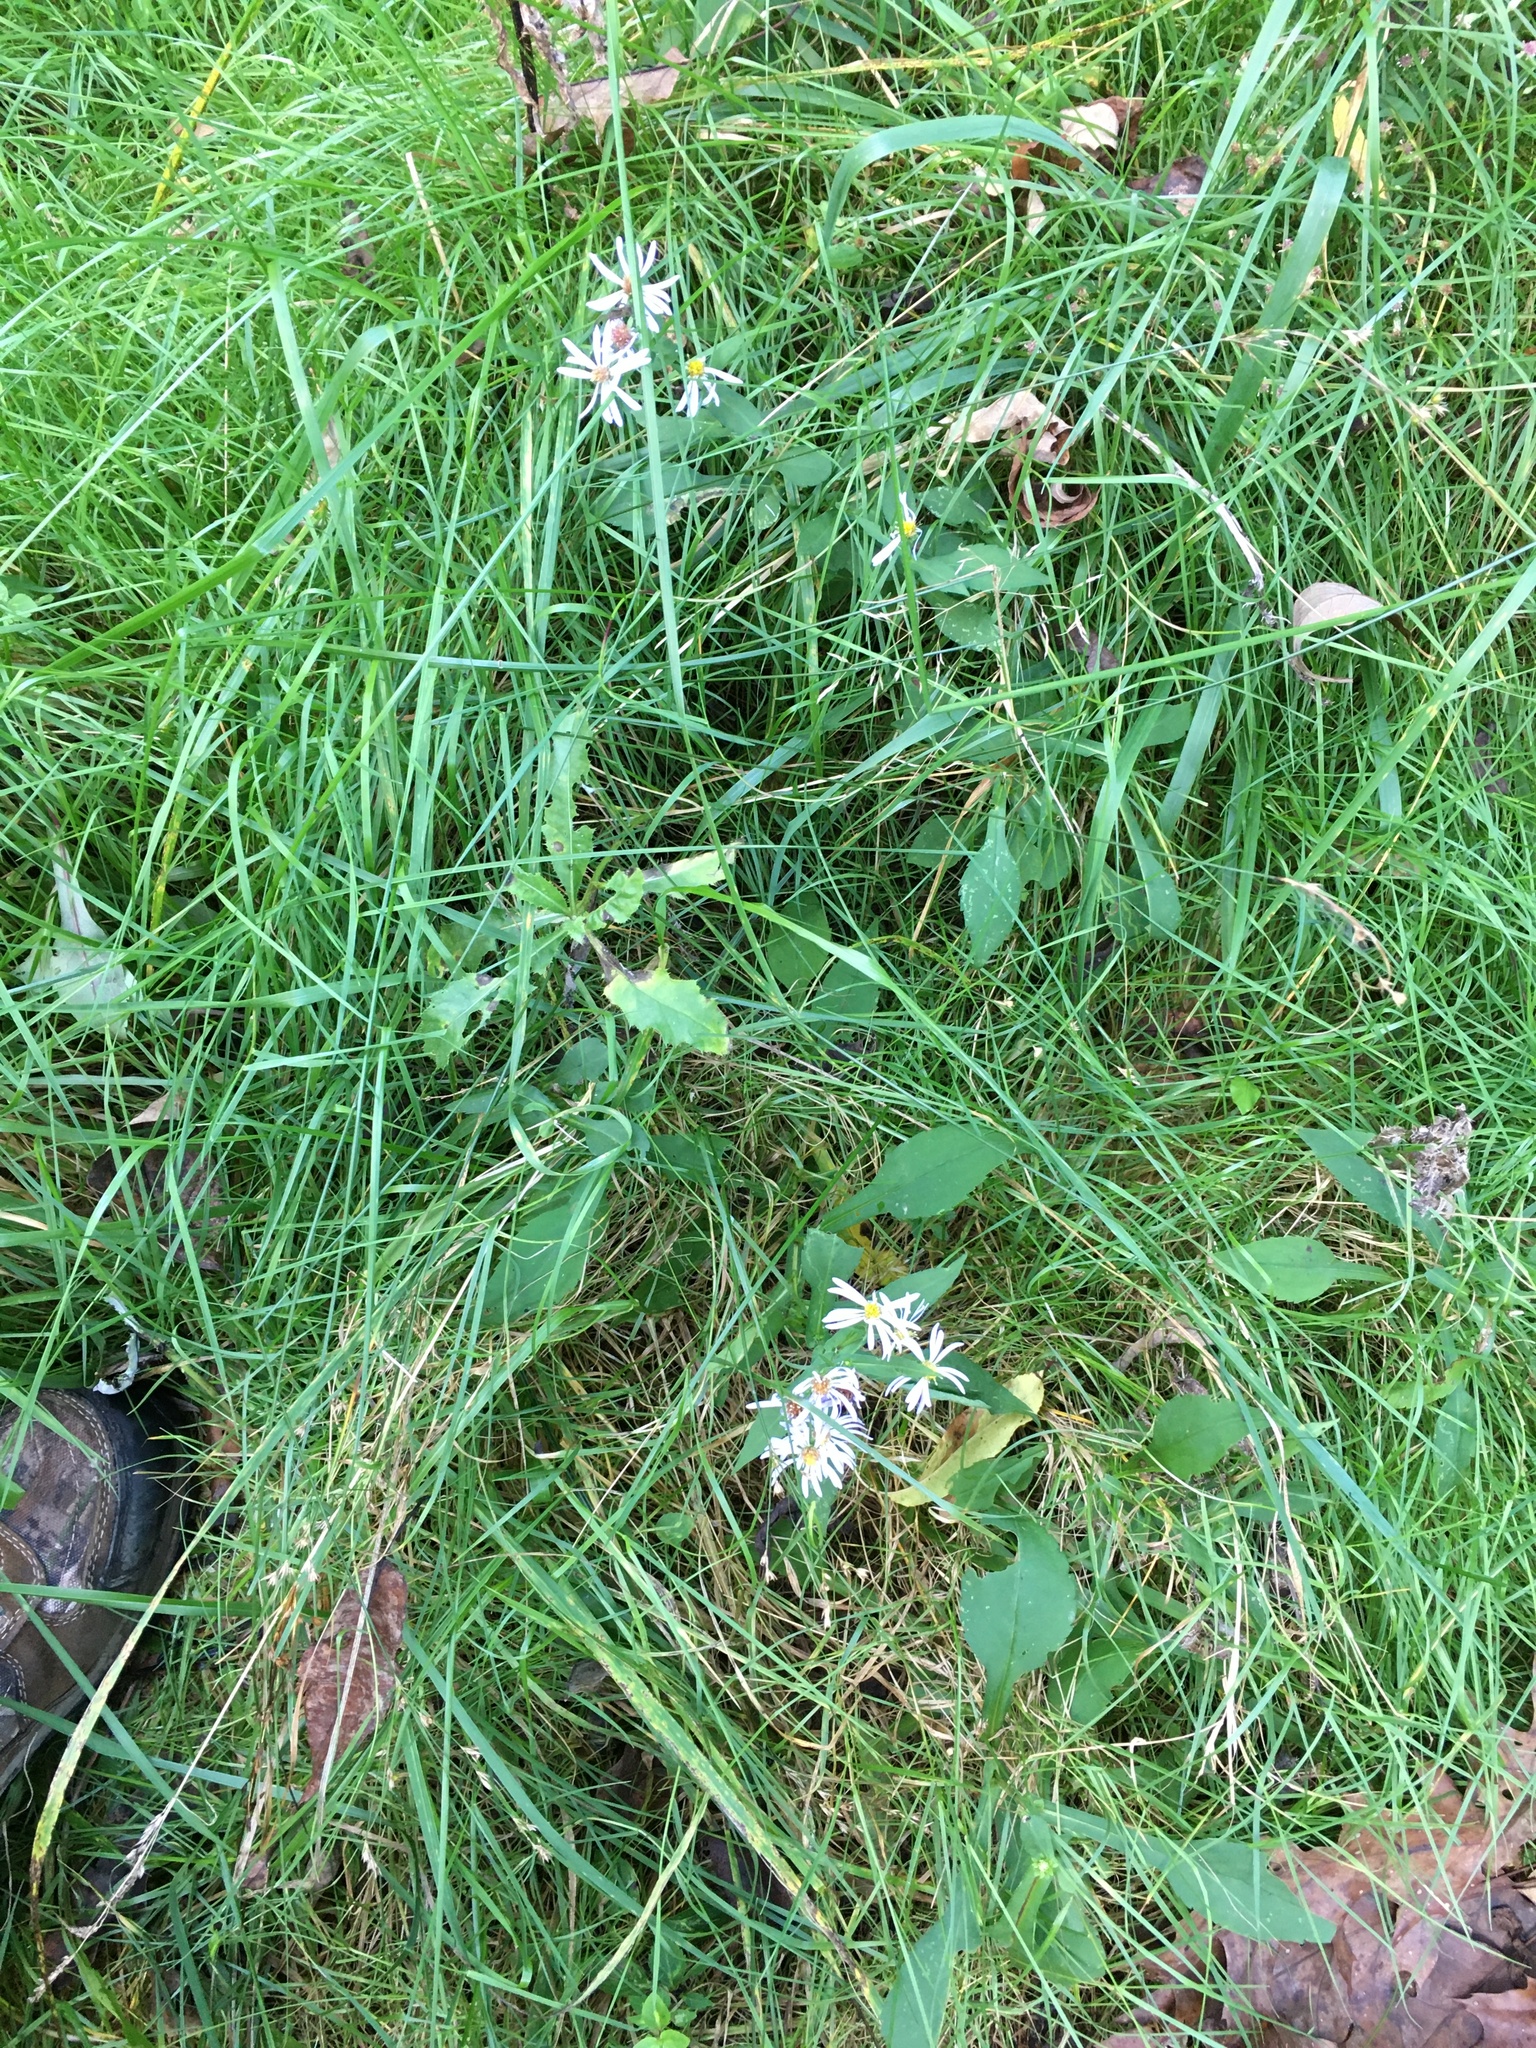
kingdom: Plantae
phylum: Tracheophyta
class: Magnoliopsida
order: Asterales
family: Asteraceae
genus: Symphyotrichum
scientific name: Symphyotrichum prenanthoides
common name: Crooked-stem aster
